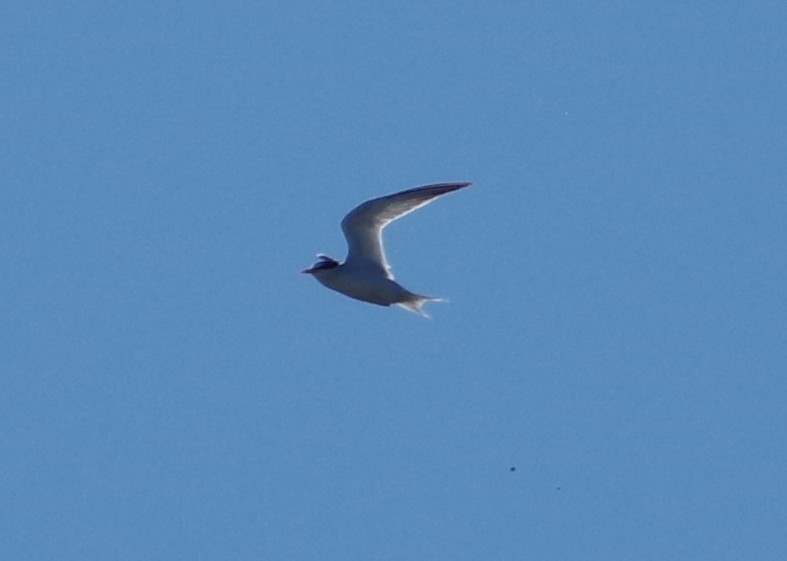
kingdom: Animalia
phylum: Chordata
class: Aves
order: Charadriiformes
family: Laridae
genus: Sternula
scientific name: Sternula antillarum
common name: Least tern
